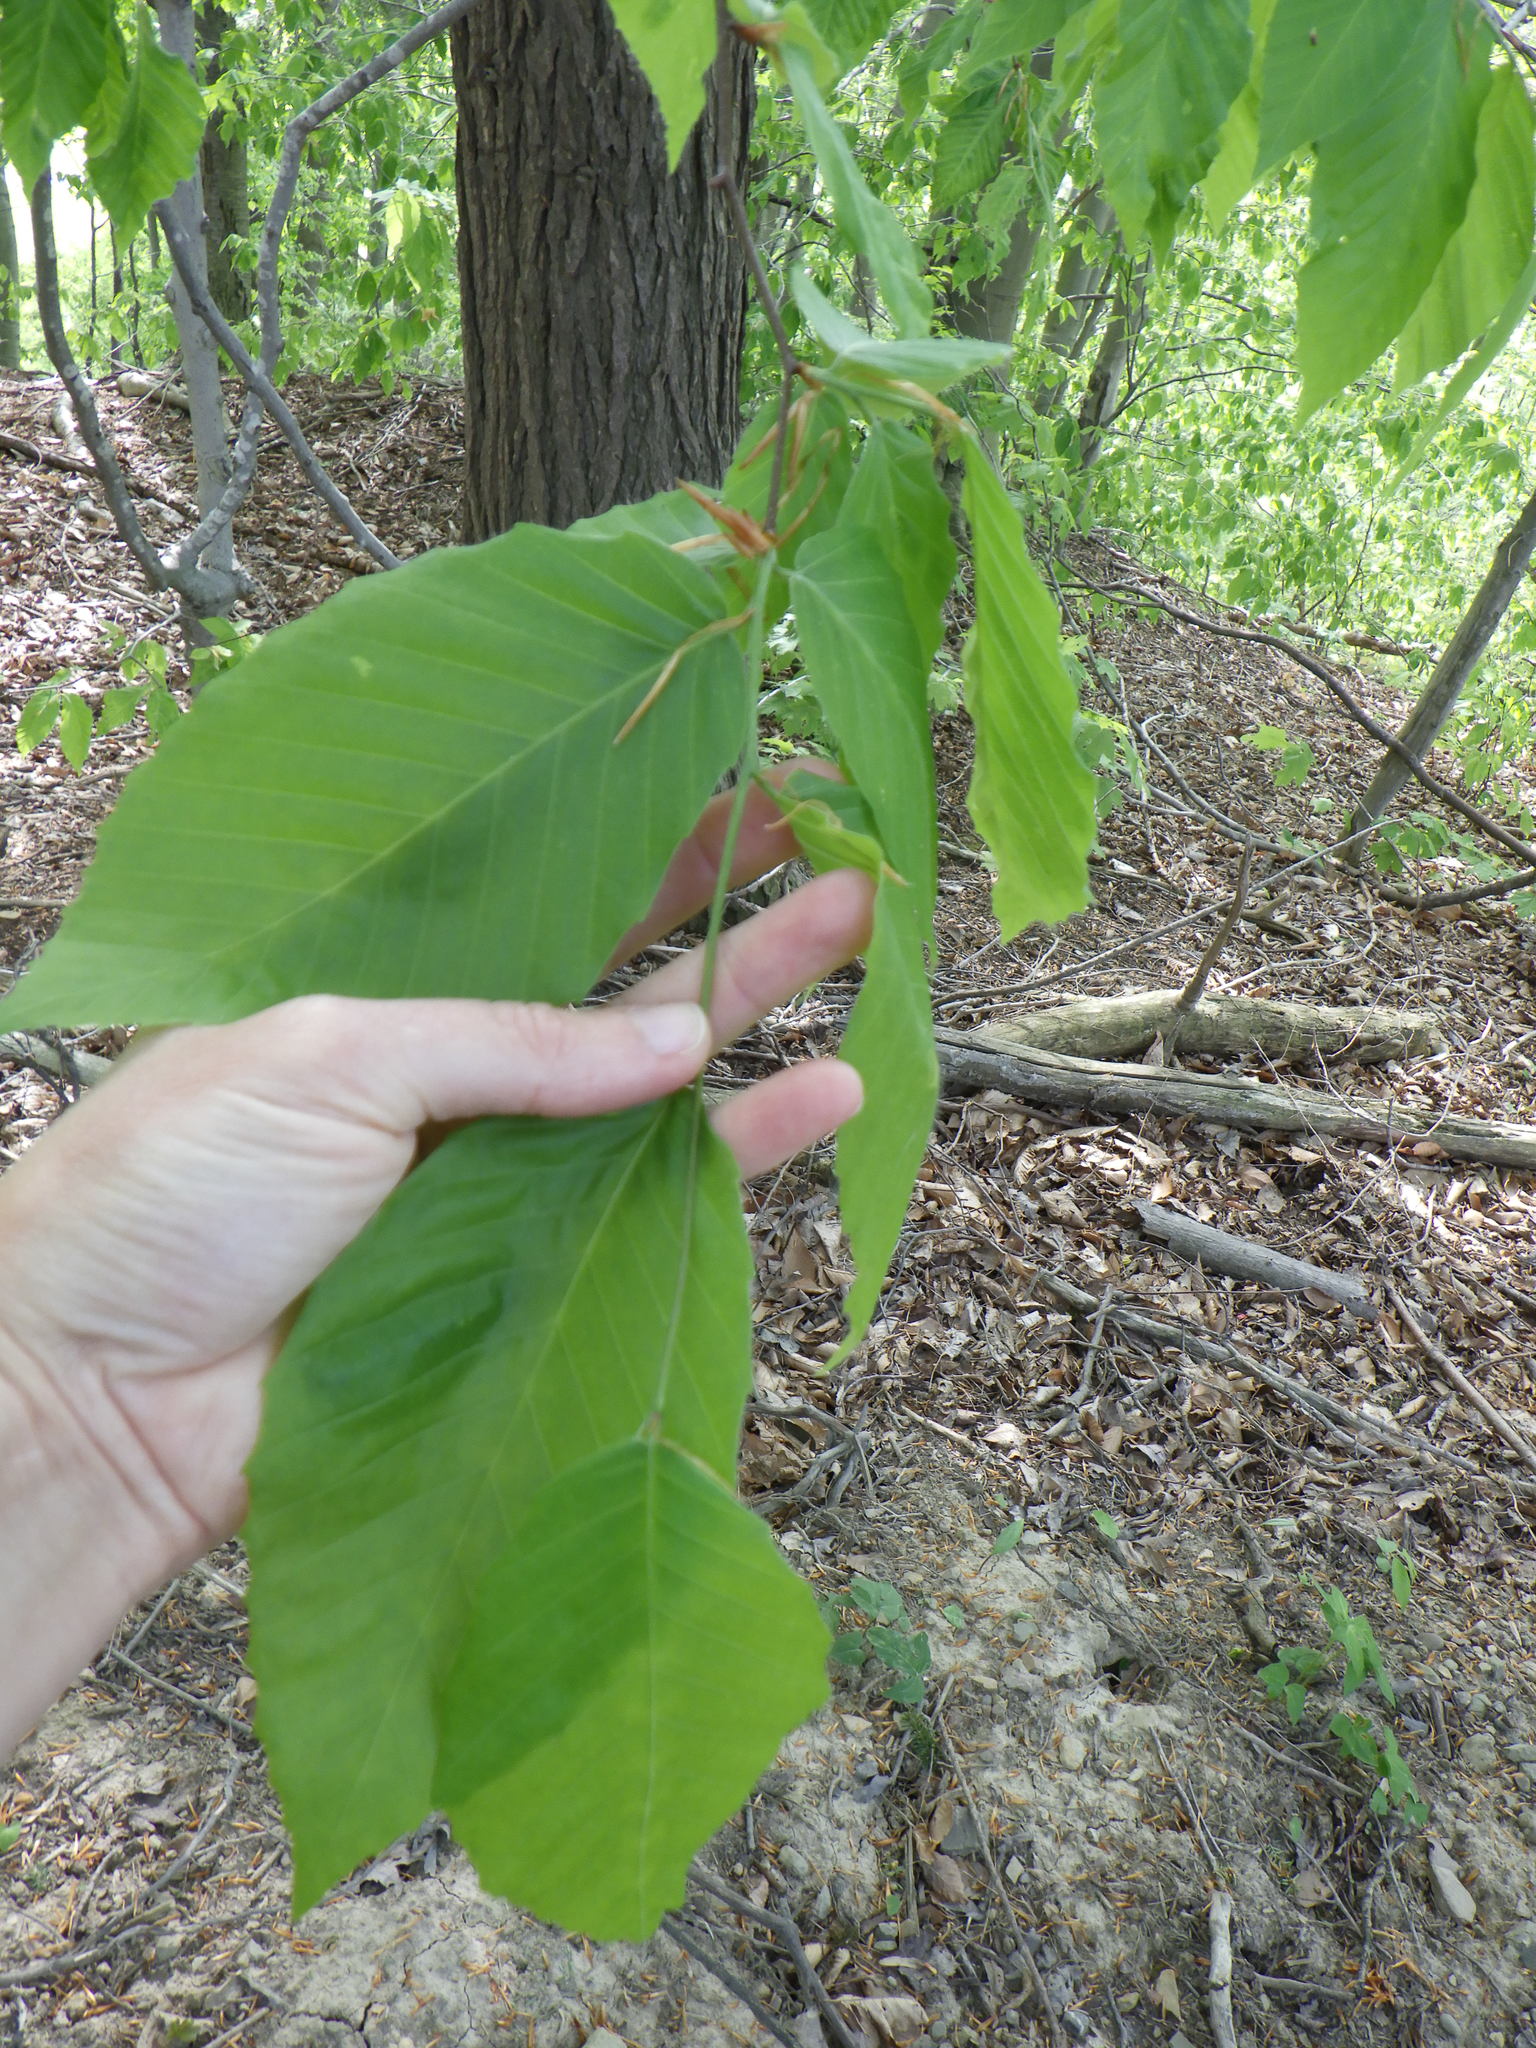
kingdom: Plantae
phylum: Tracheophyta
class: Magnoliopsida
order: Fagales
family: Fagaceae
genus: Fagus
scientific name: Fagus grandifolia
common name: American beech
